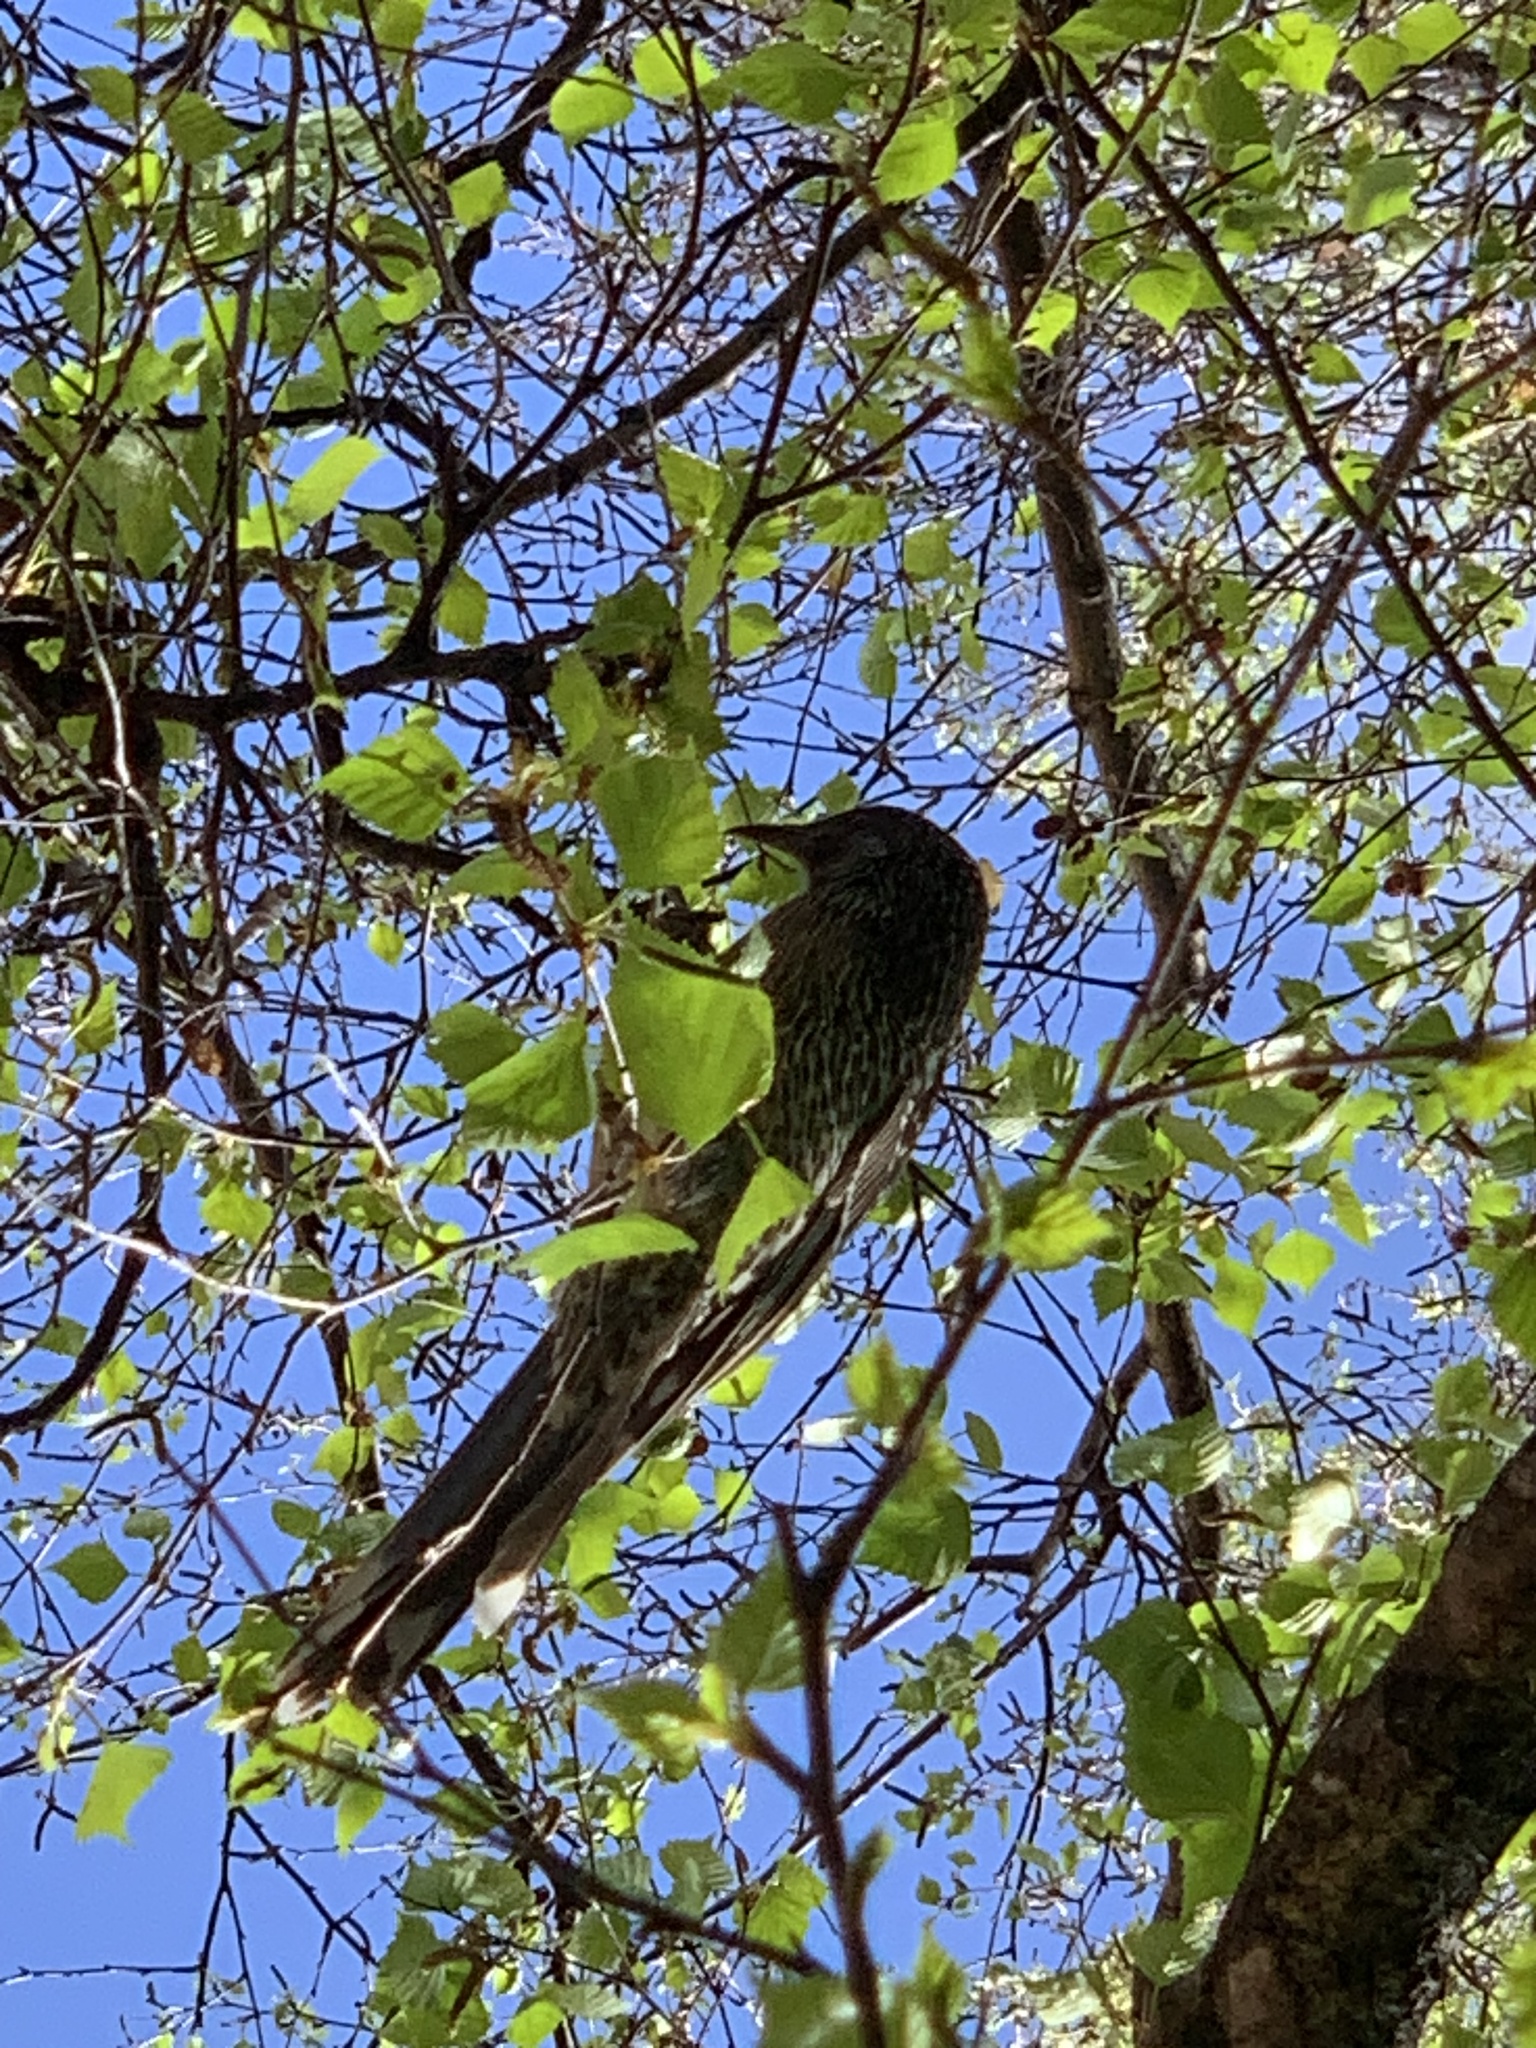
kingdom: Animalia
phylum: Chordata
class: Aves
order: Passeriformes
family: Meliphagidae
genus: Anthochaera
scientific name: Anthochaera chrysoptera
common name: Little wattlebird
